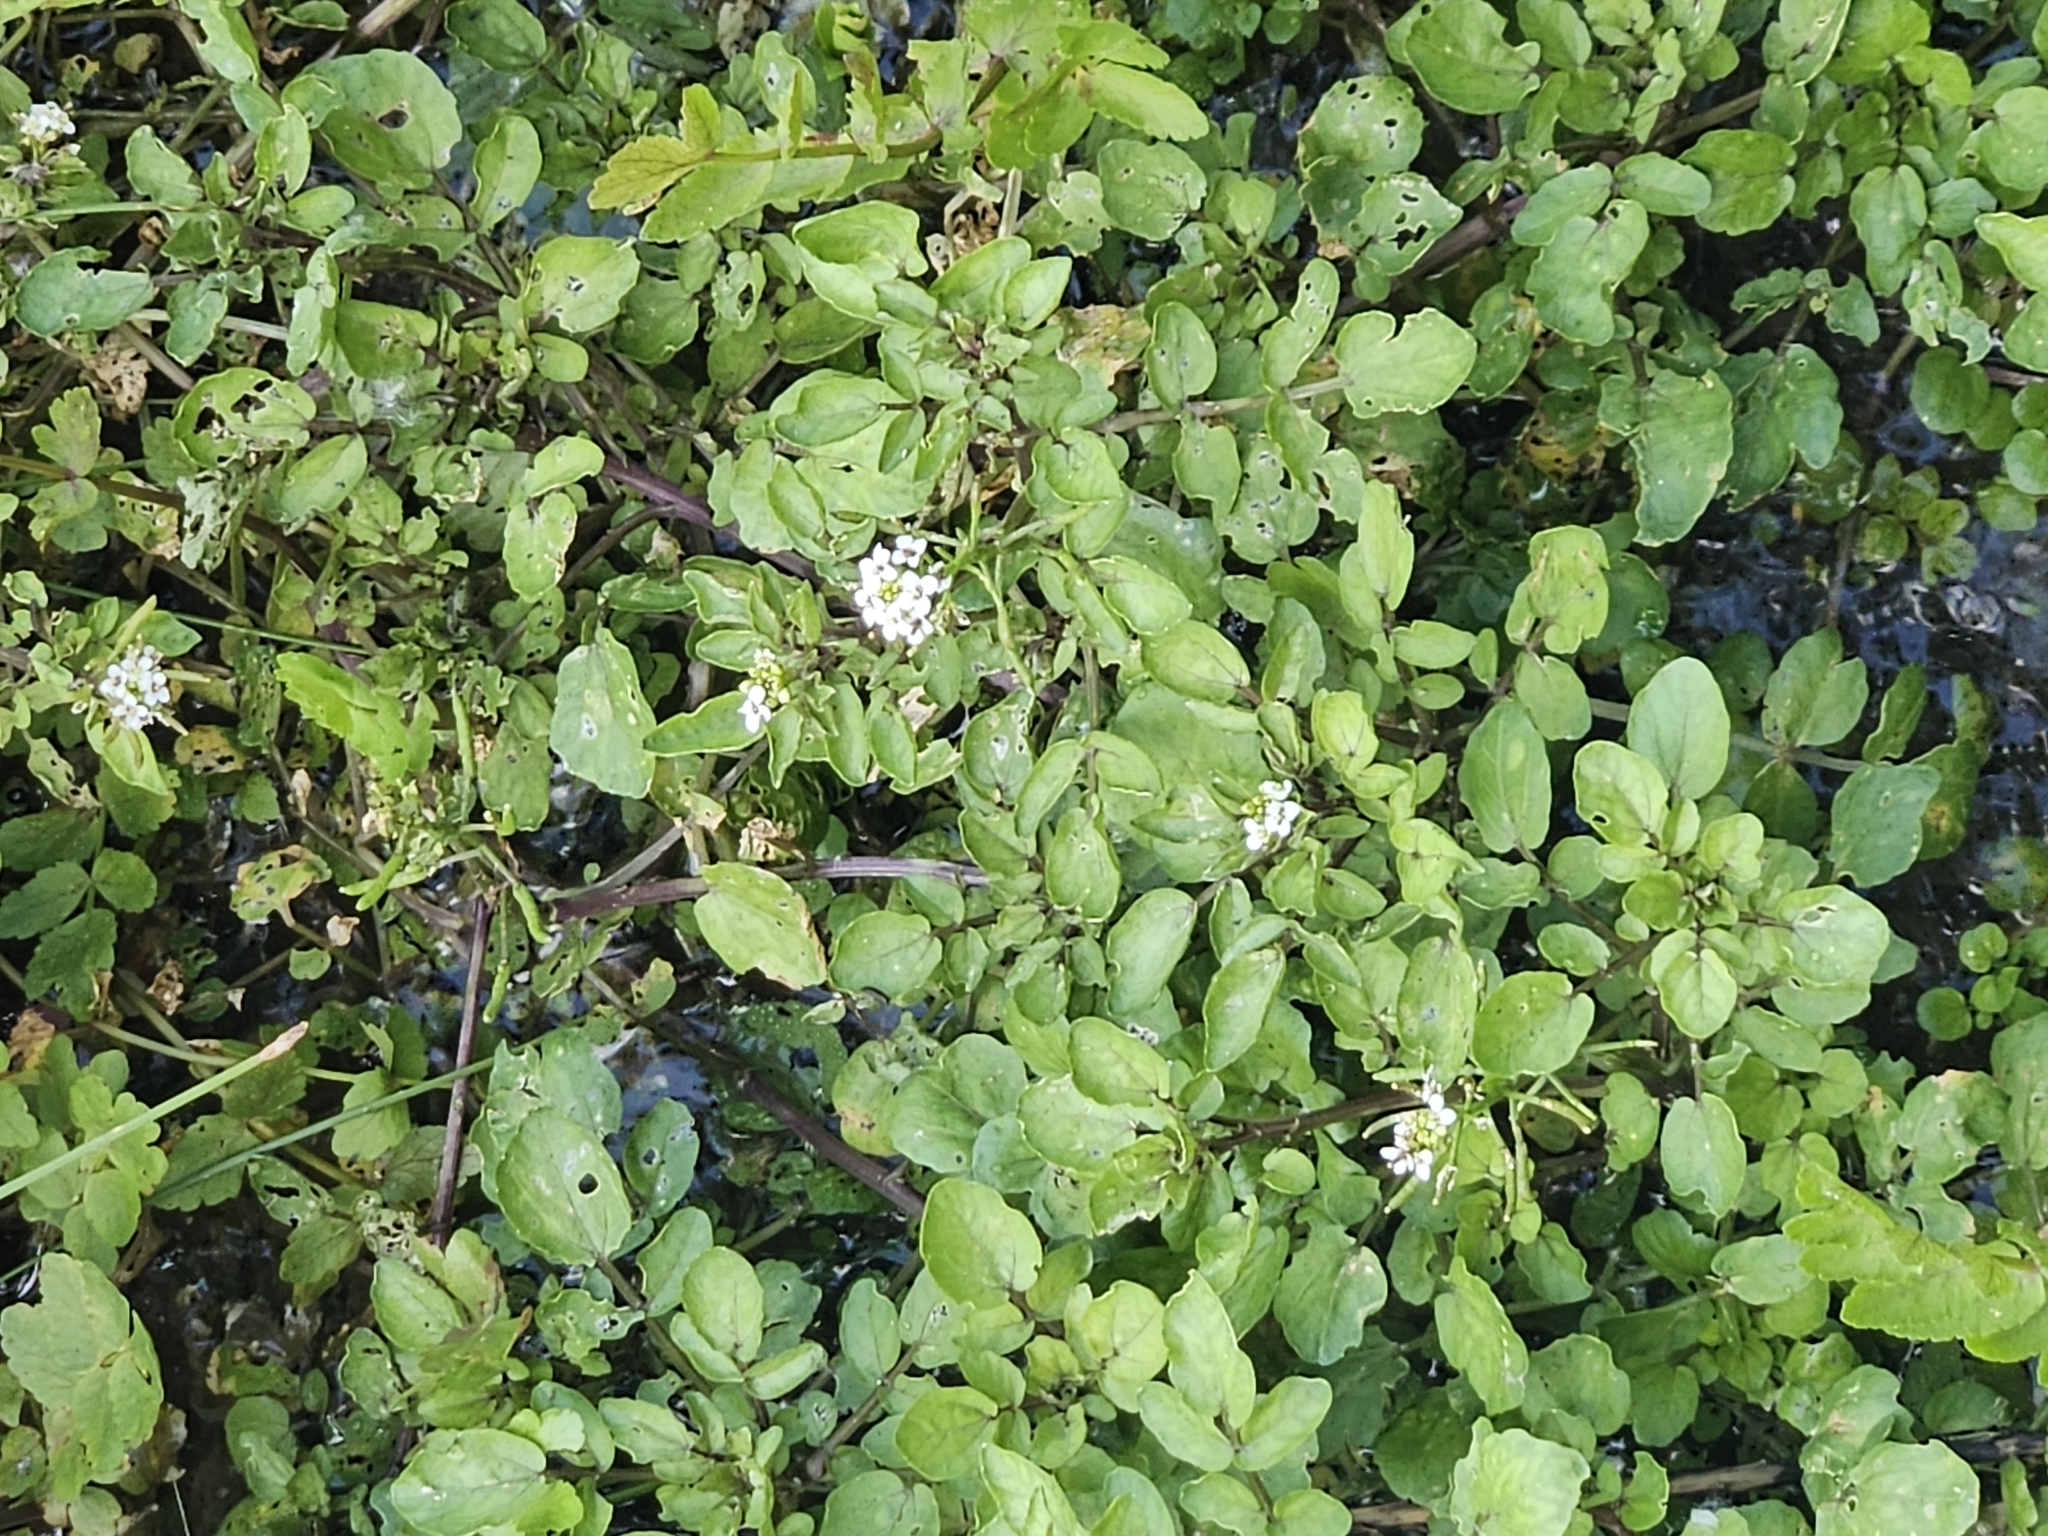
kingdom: Plantae
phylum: Tracheophyta
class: Magnoliopsida
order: Brassicales
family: Brassicaceae
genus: Nasturtium
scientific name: Nasturtium officinale
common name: Watercress
